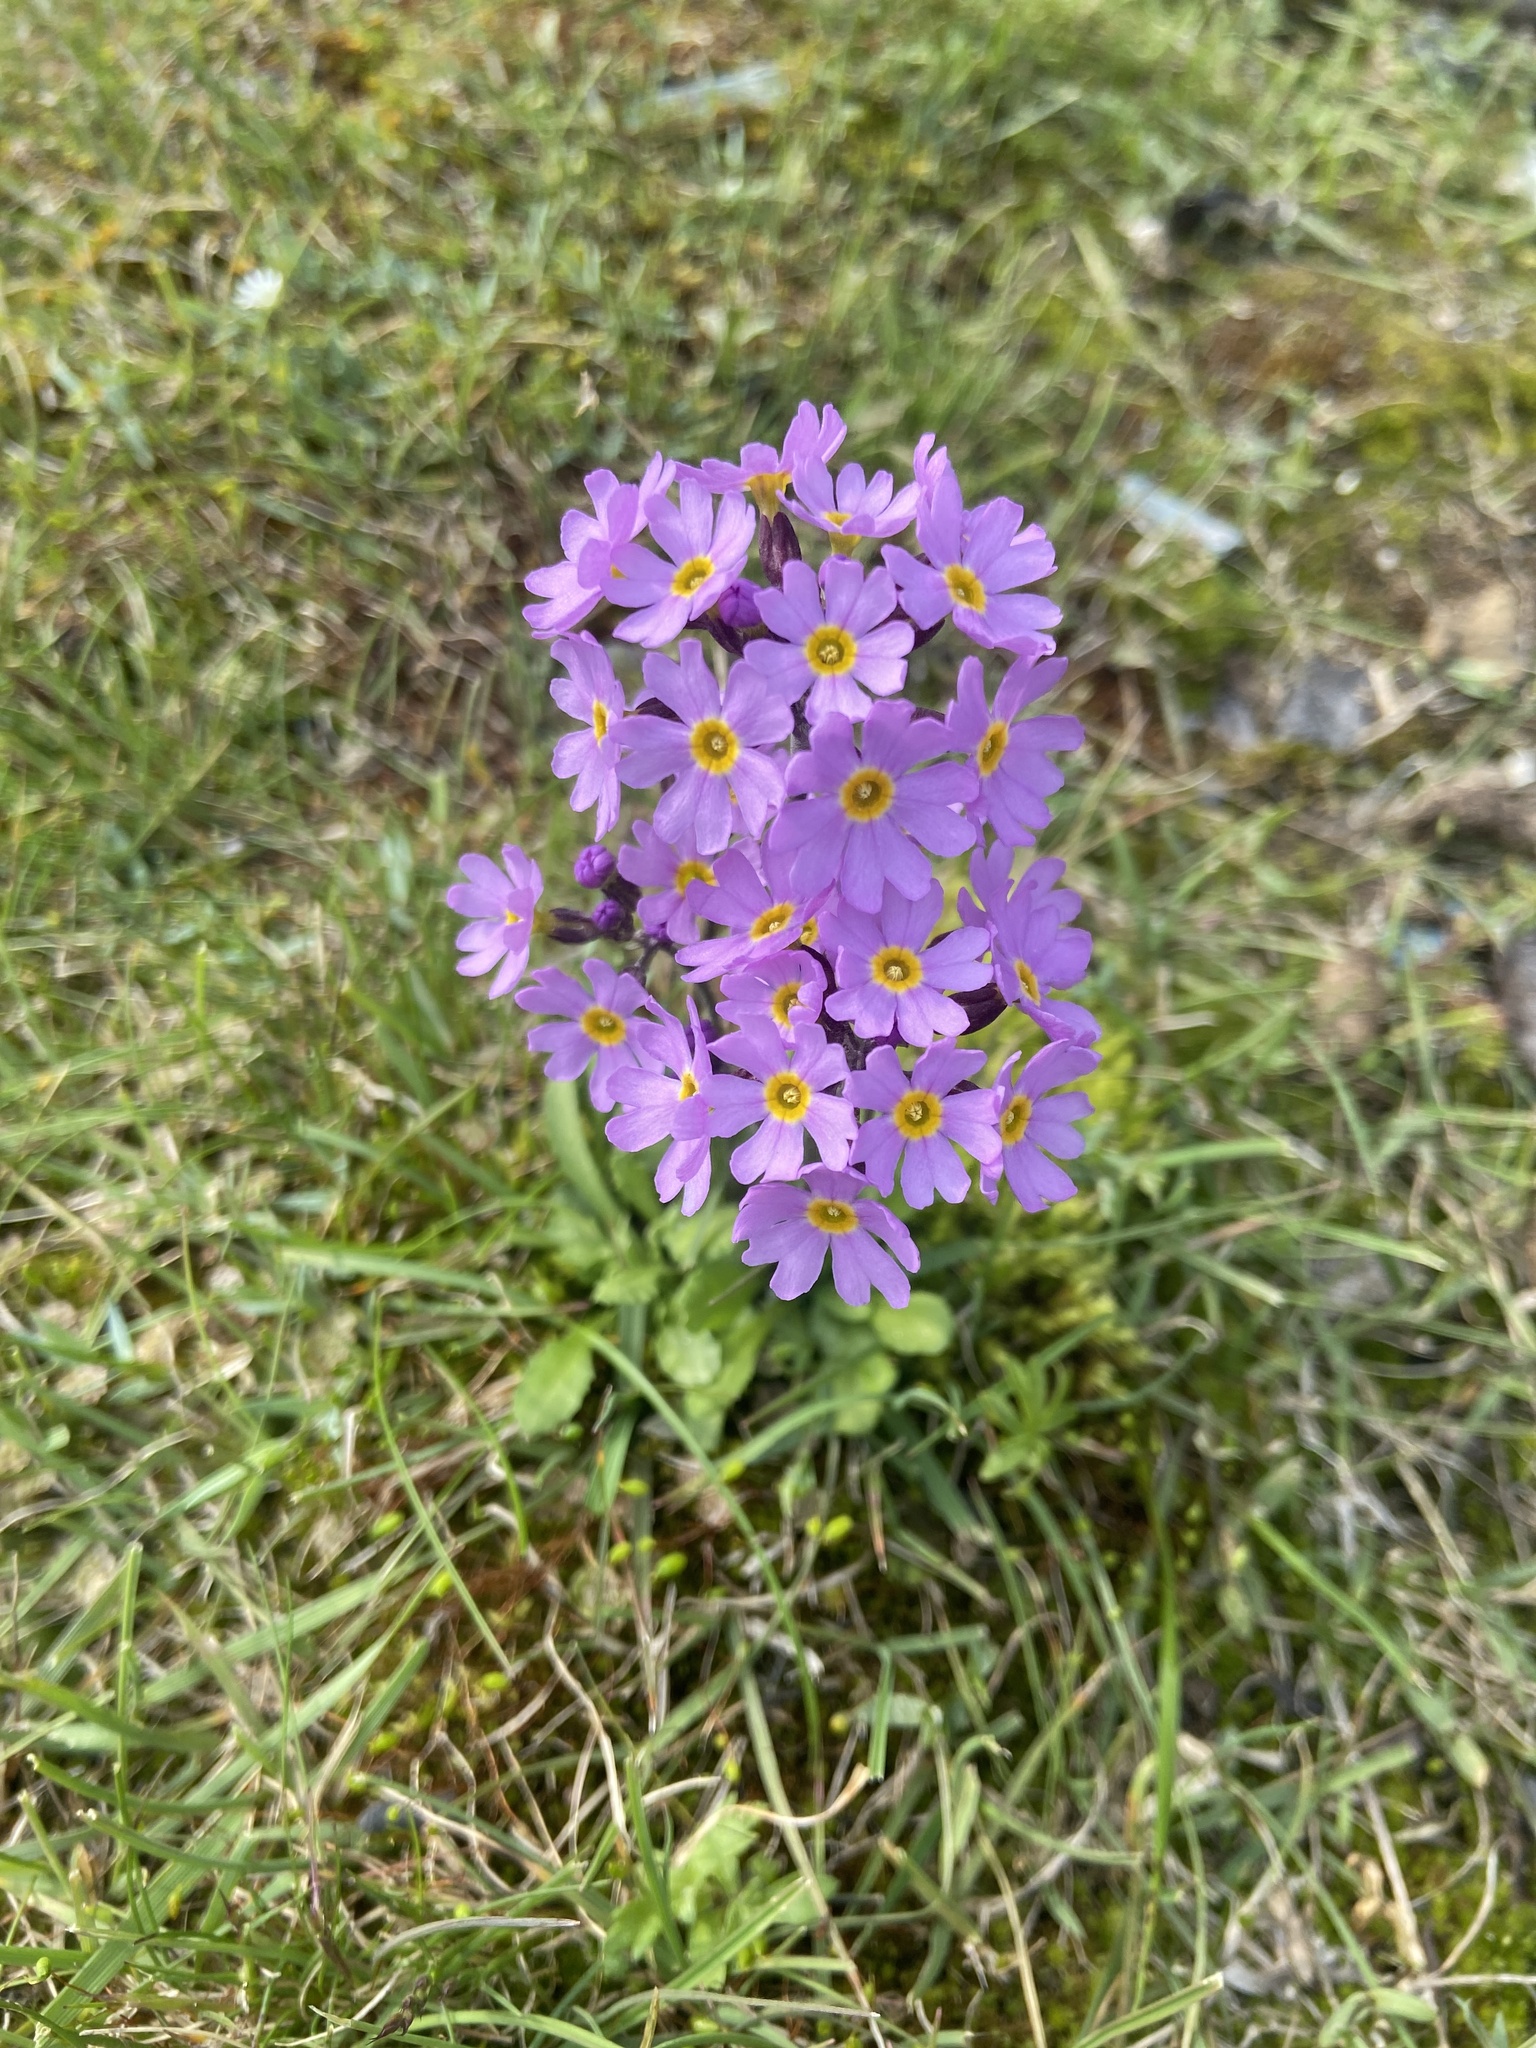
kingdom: Plantae
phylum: Tracheophyta
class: Magnoliopsida
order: Ericales
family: Primulaceae
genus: Primula
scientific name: Primula borealis
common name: Northern primrose
